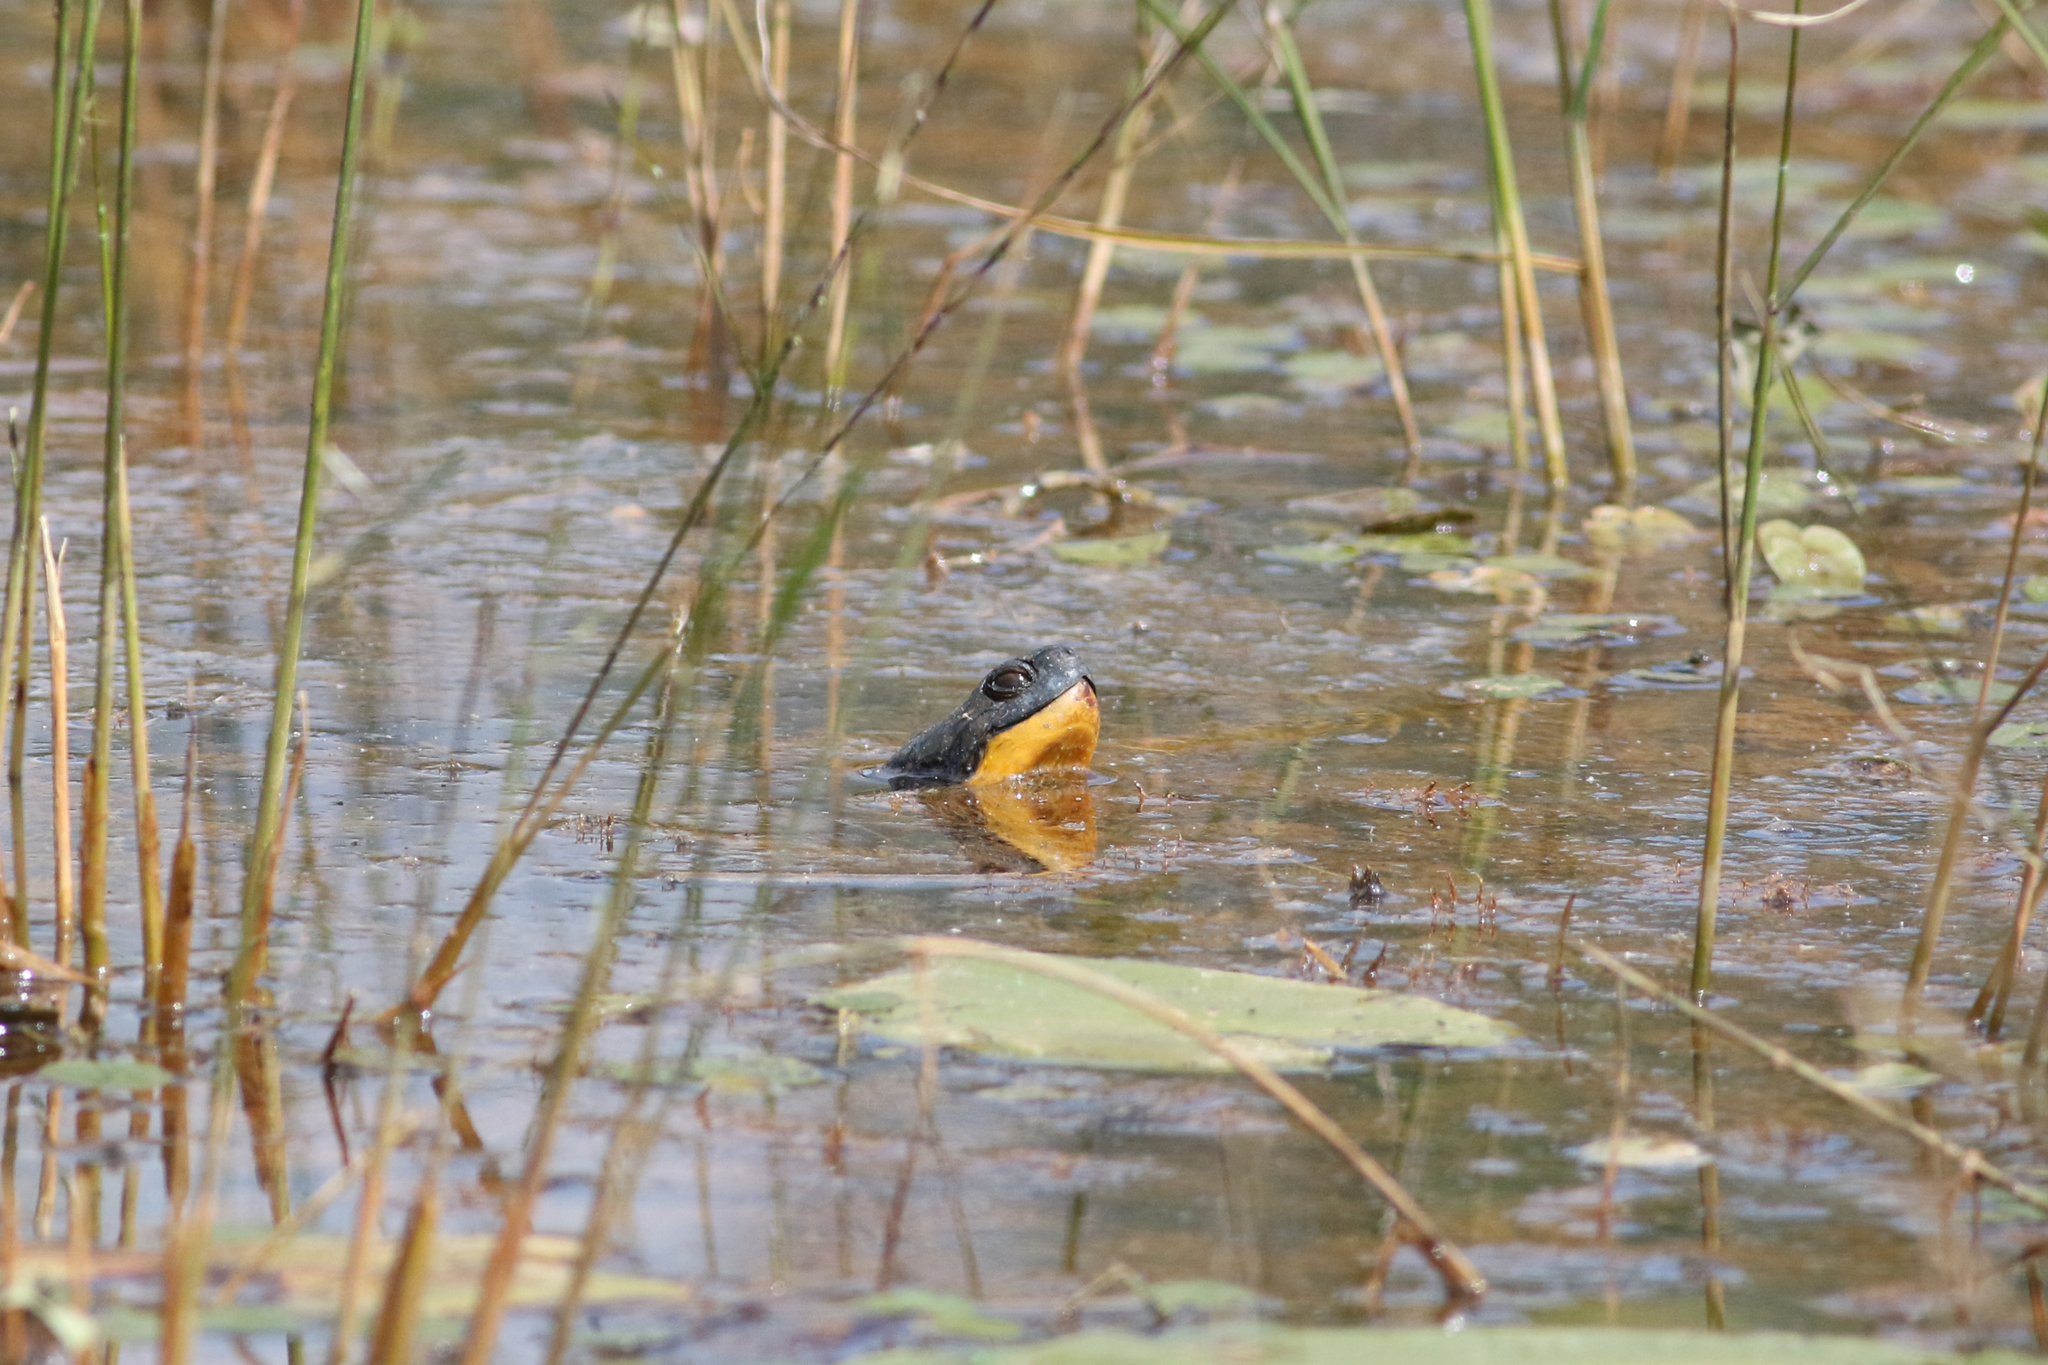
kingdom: Animalia
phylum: Chordata
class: Testudines
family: Emydidae
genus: Emys
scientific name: Emys blandingii
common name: Blanding's turtle
